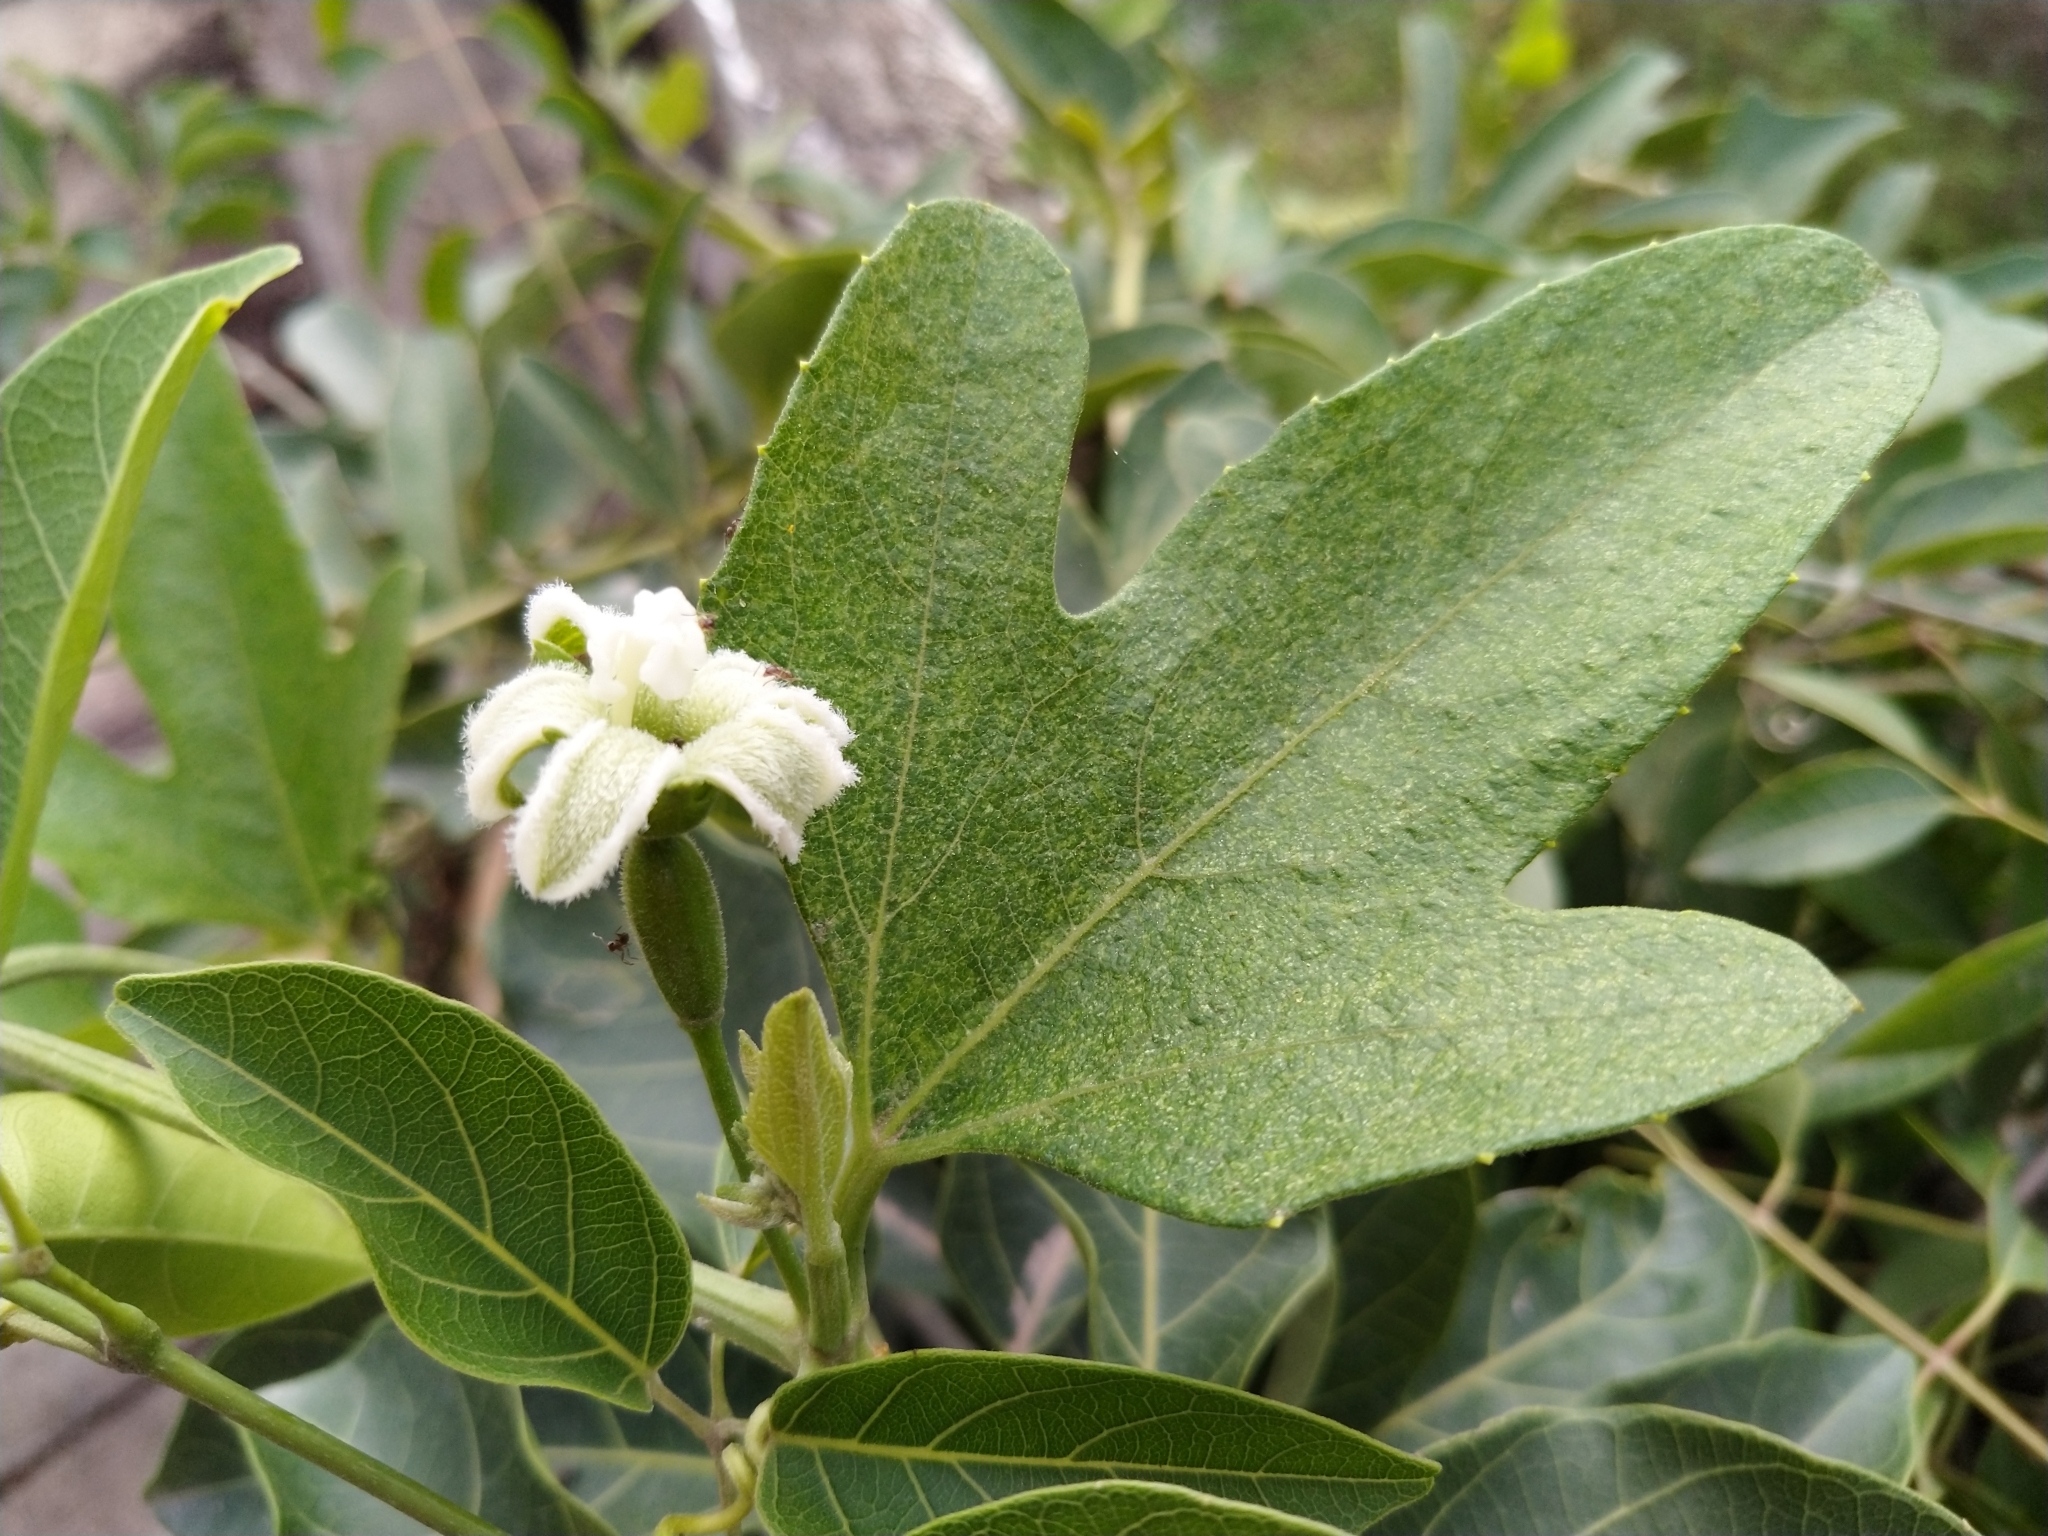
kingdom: Plantae
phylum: Tracheophyta
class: Magnoliopsida
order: Cucurbitales
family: Cucurbitaceae
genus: Cayaponia
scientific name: Cayaponia podantha
